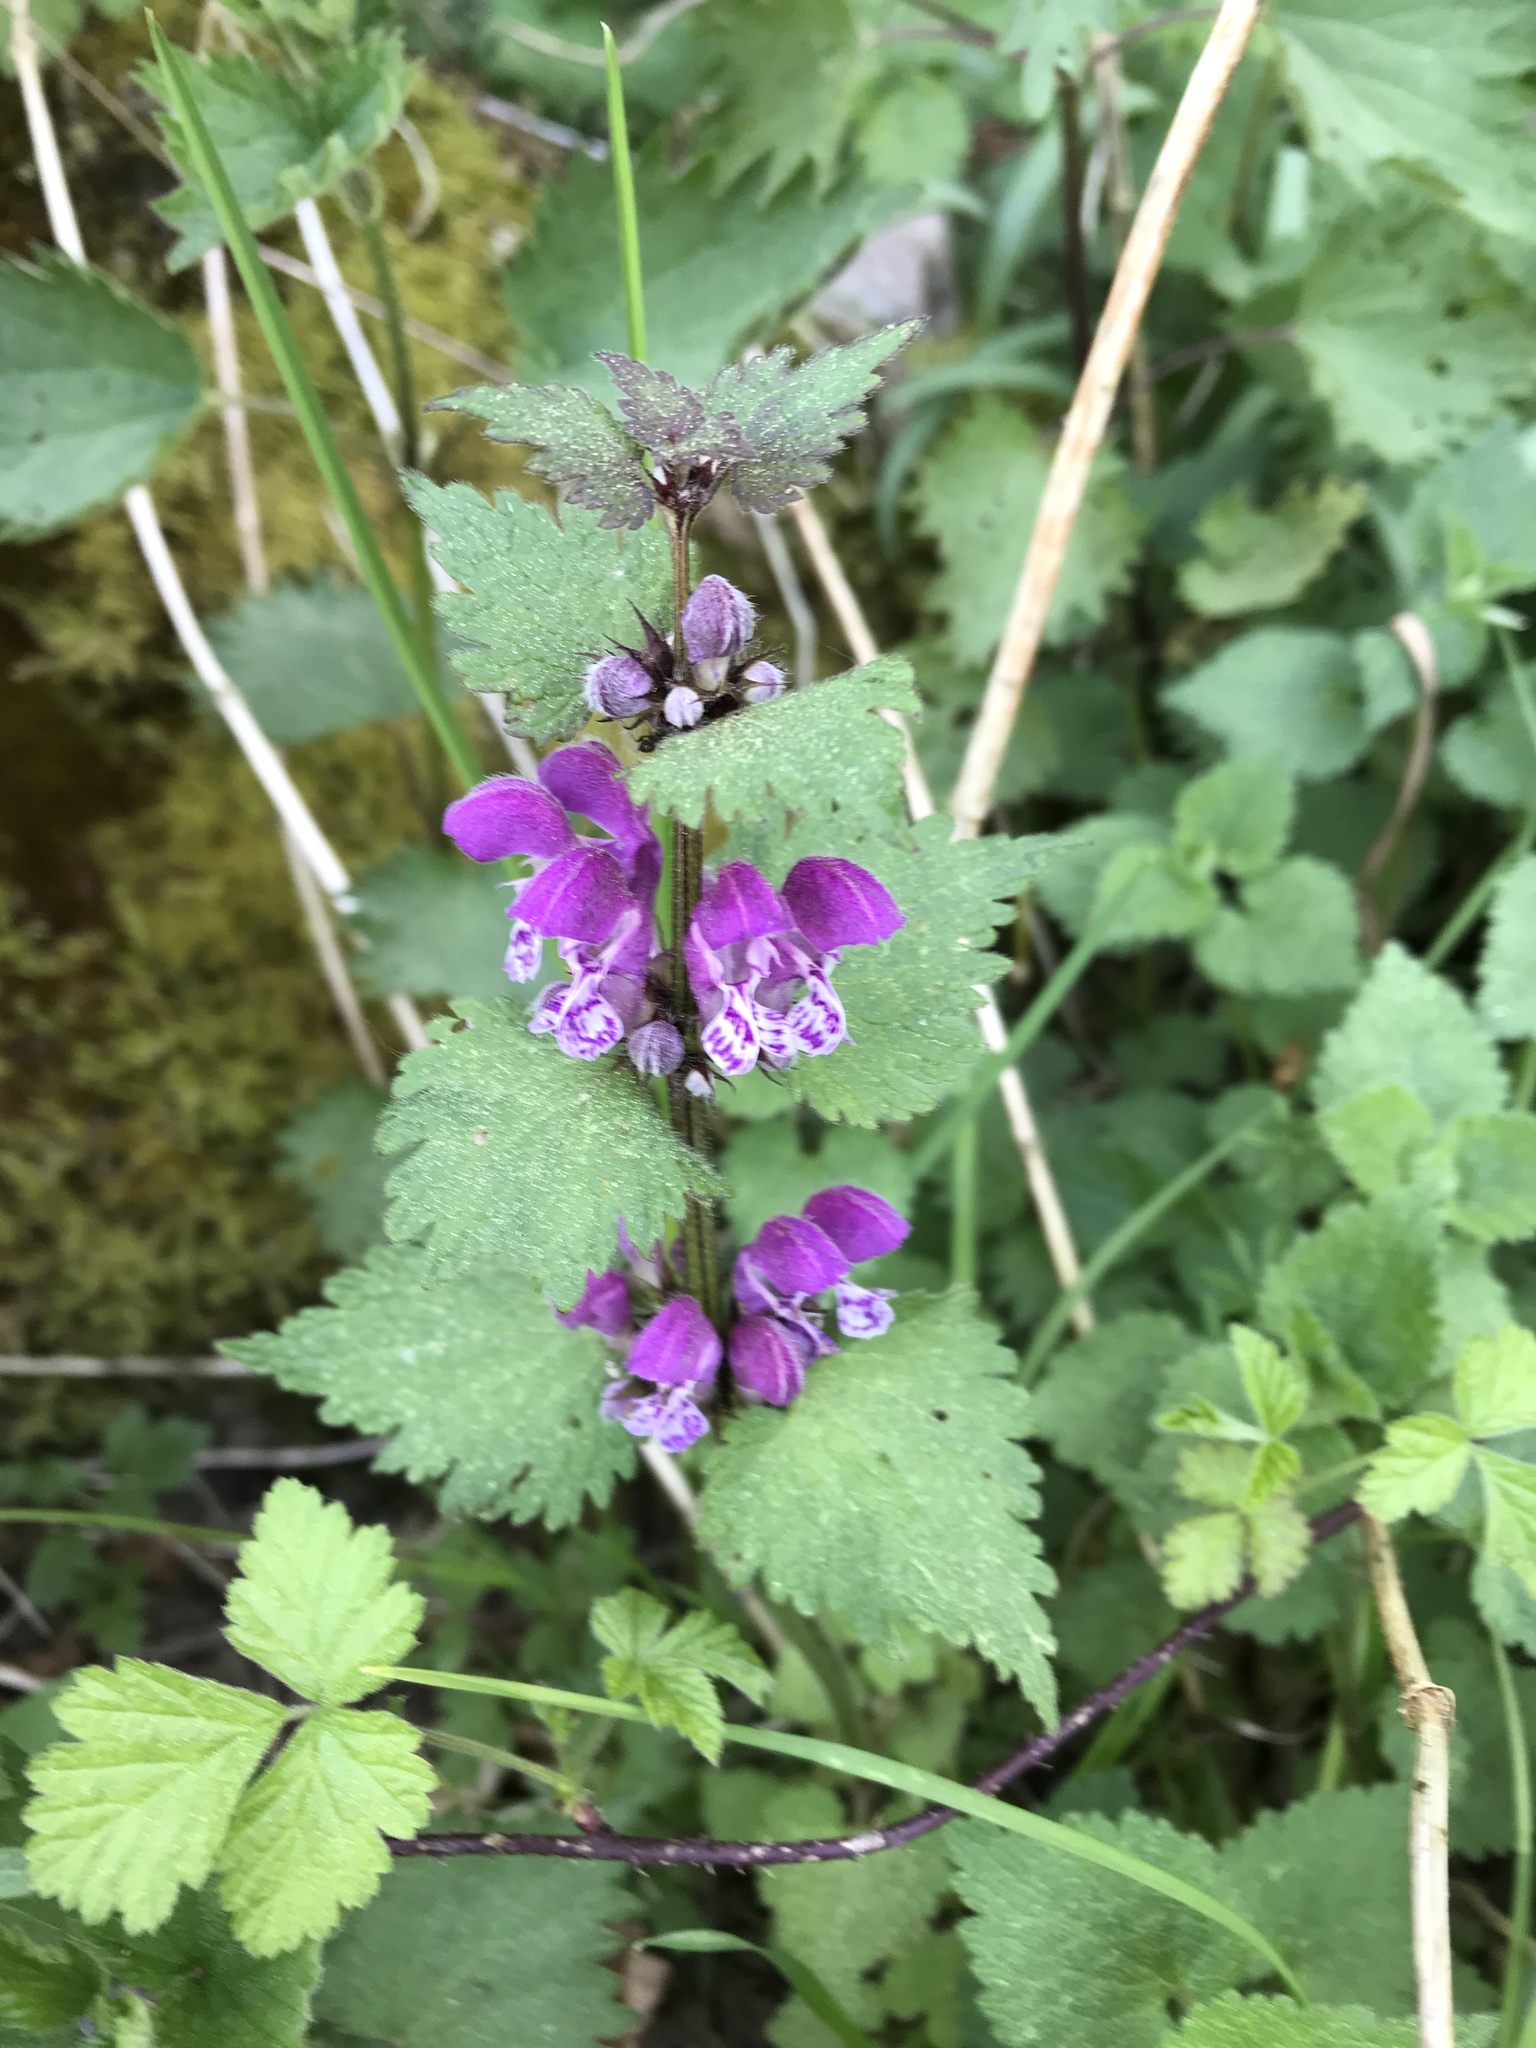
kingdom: Plantae
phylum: Tracheophyta
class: Magnoliopsida
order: Lamiales
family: Lamiaceae
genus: Lamium
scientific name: Lamium maculatum
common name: Spotted dead-nettle
